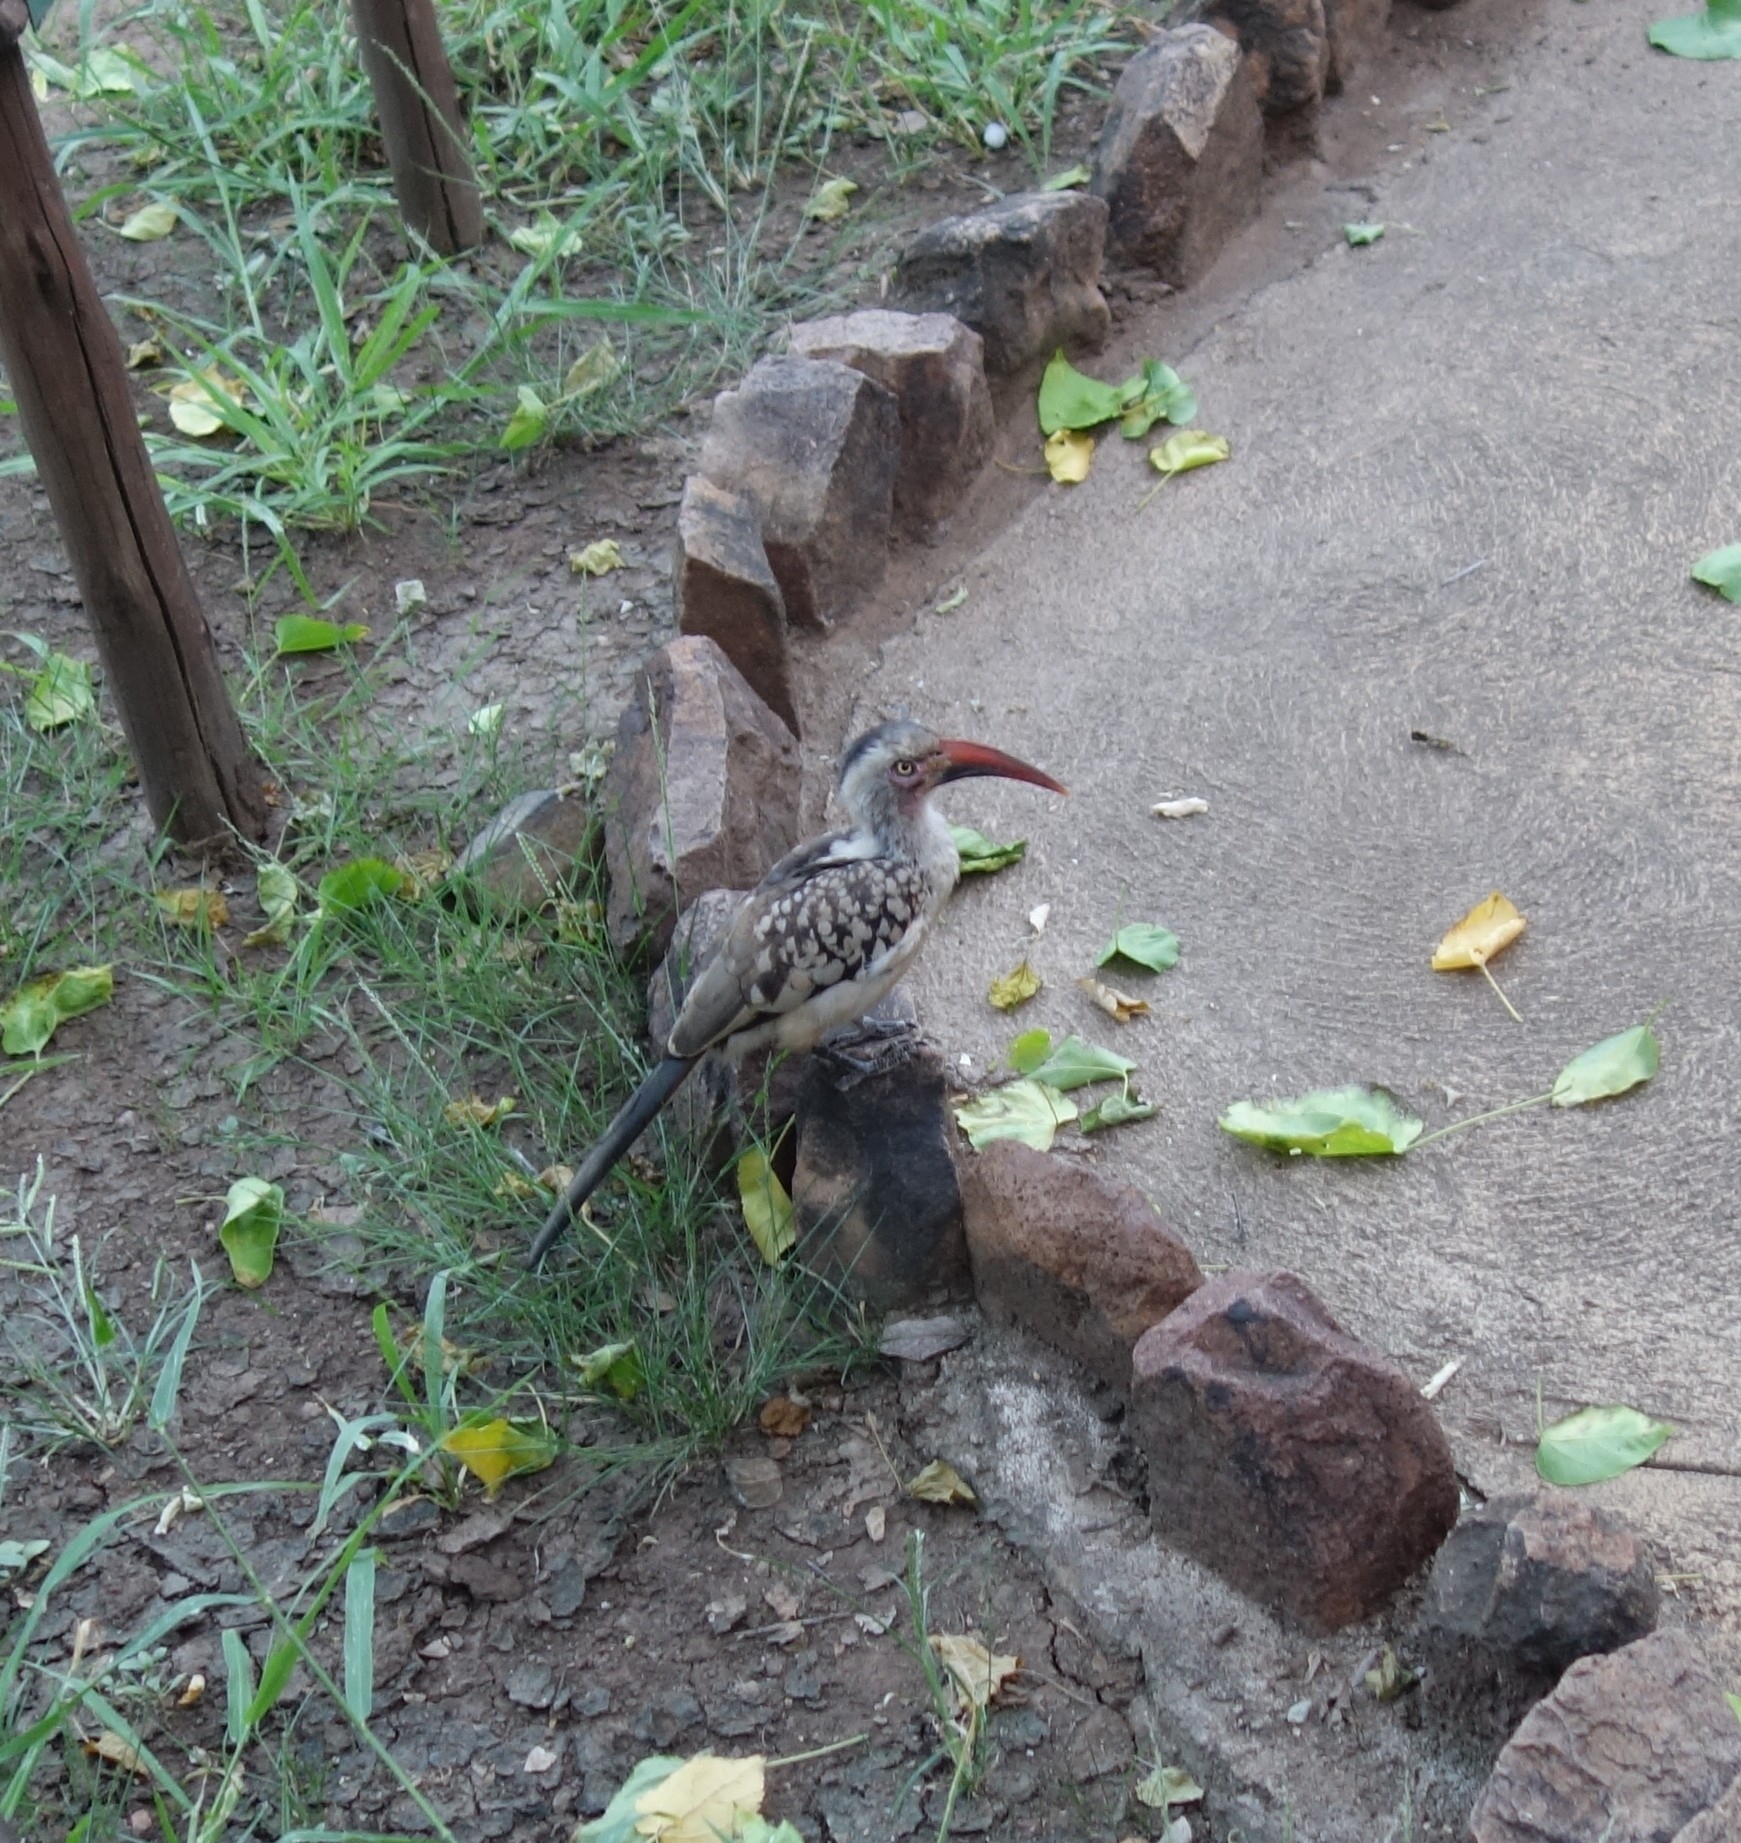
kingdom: Animalia
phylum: Chordata
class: Aves
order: Bucerotiformes
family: Bucerotidae
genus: Tockus
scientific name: Tockus rufirostris
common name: Southern red-billed hornbill
